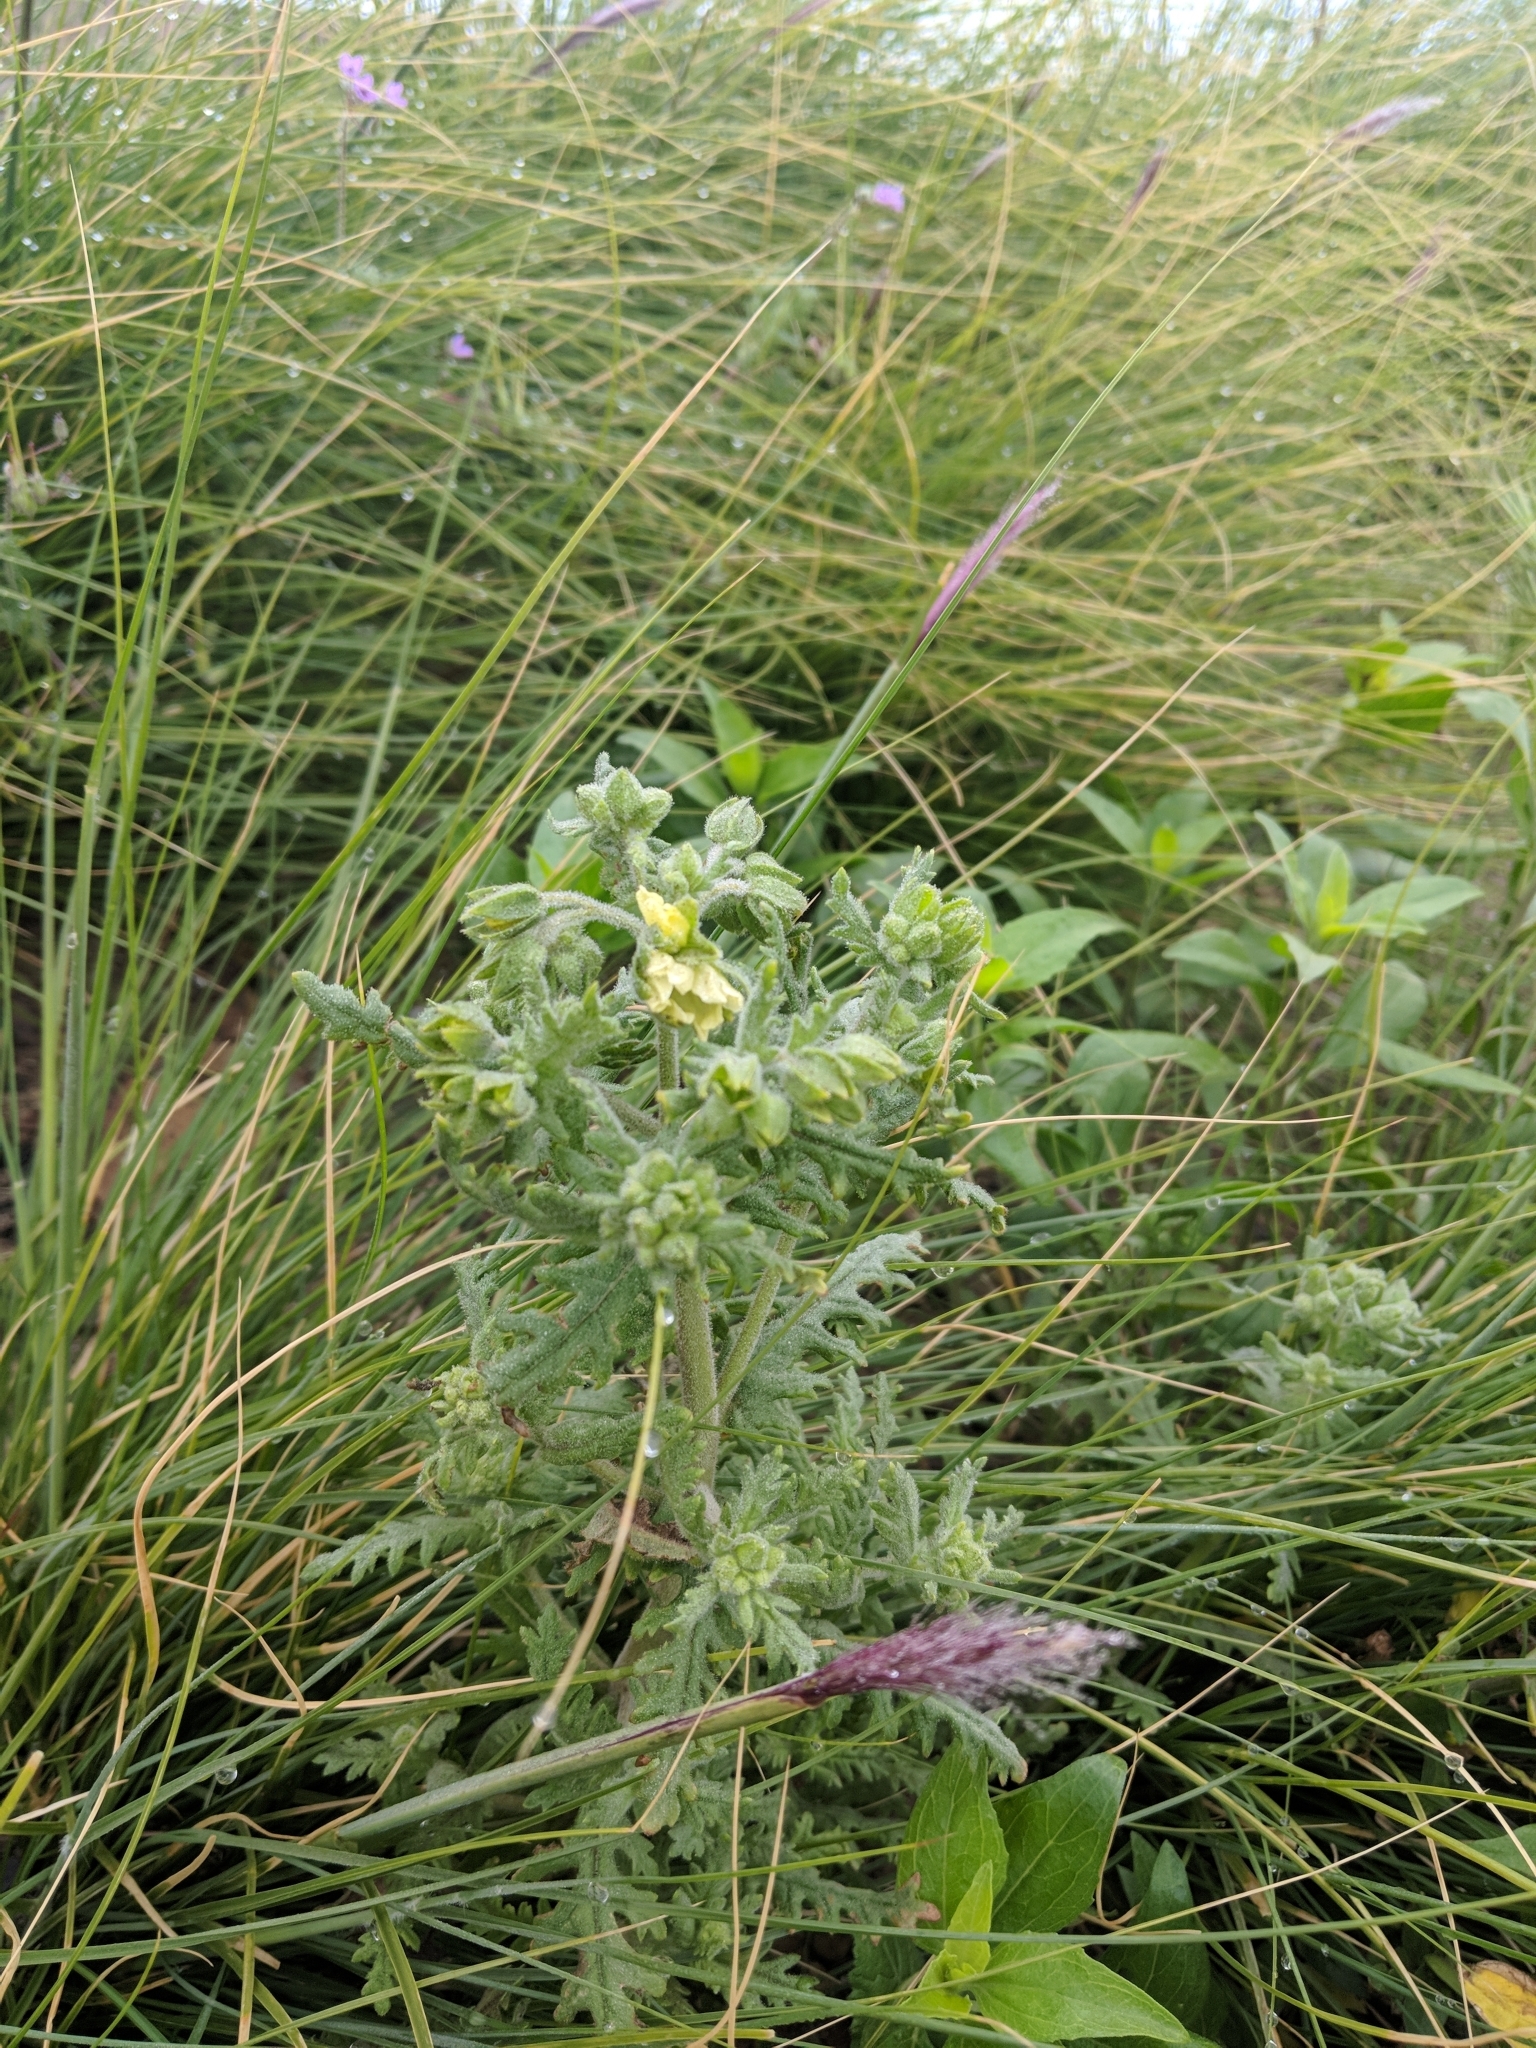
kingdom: Plantae
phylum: Tracheophyta
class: Magnoliopsida
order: Boraginales
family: Hydrophyllaceae
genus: Emmenanthe
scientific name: Emmenanthe penduliflora
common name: Whispering-bells
